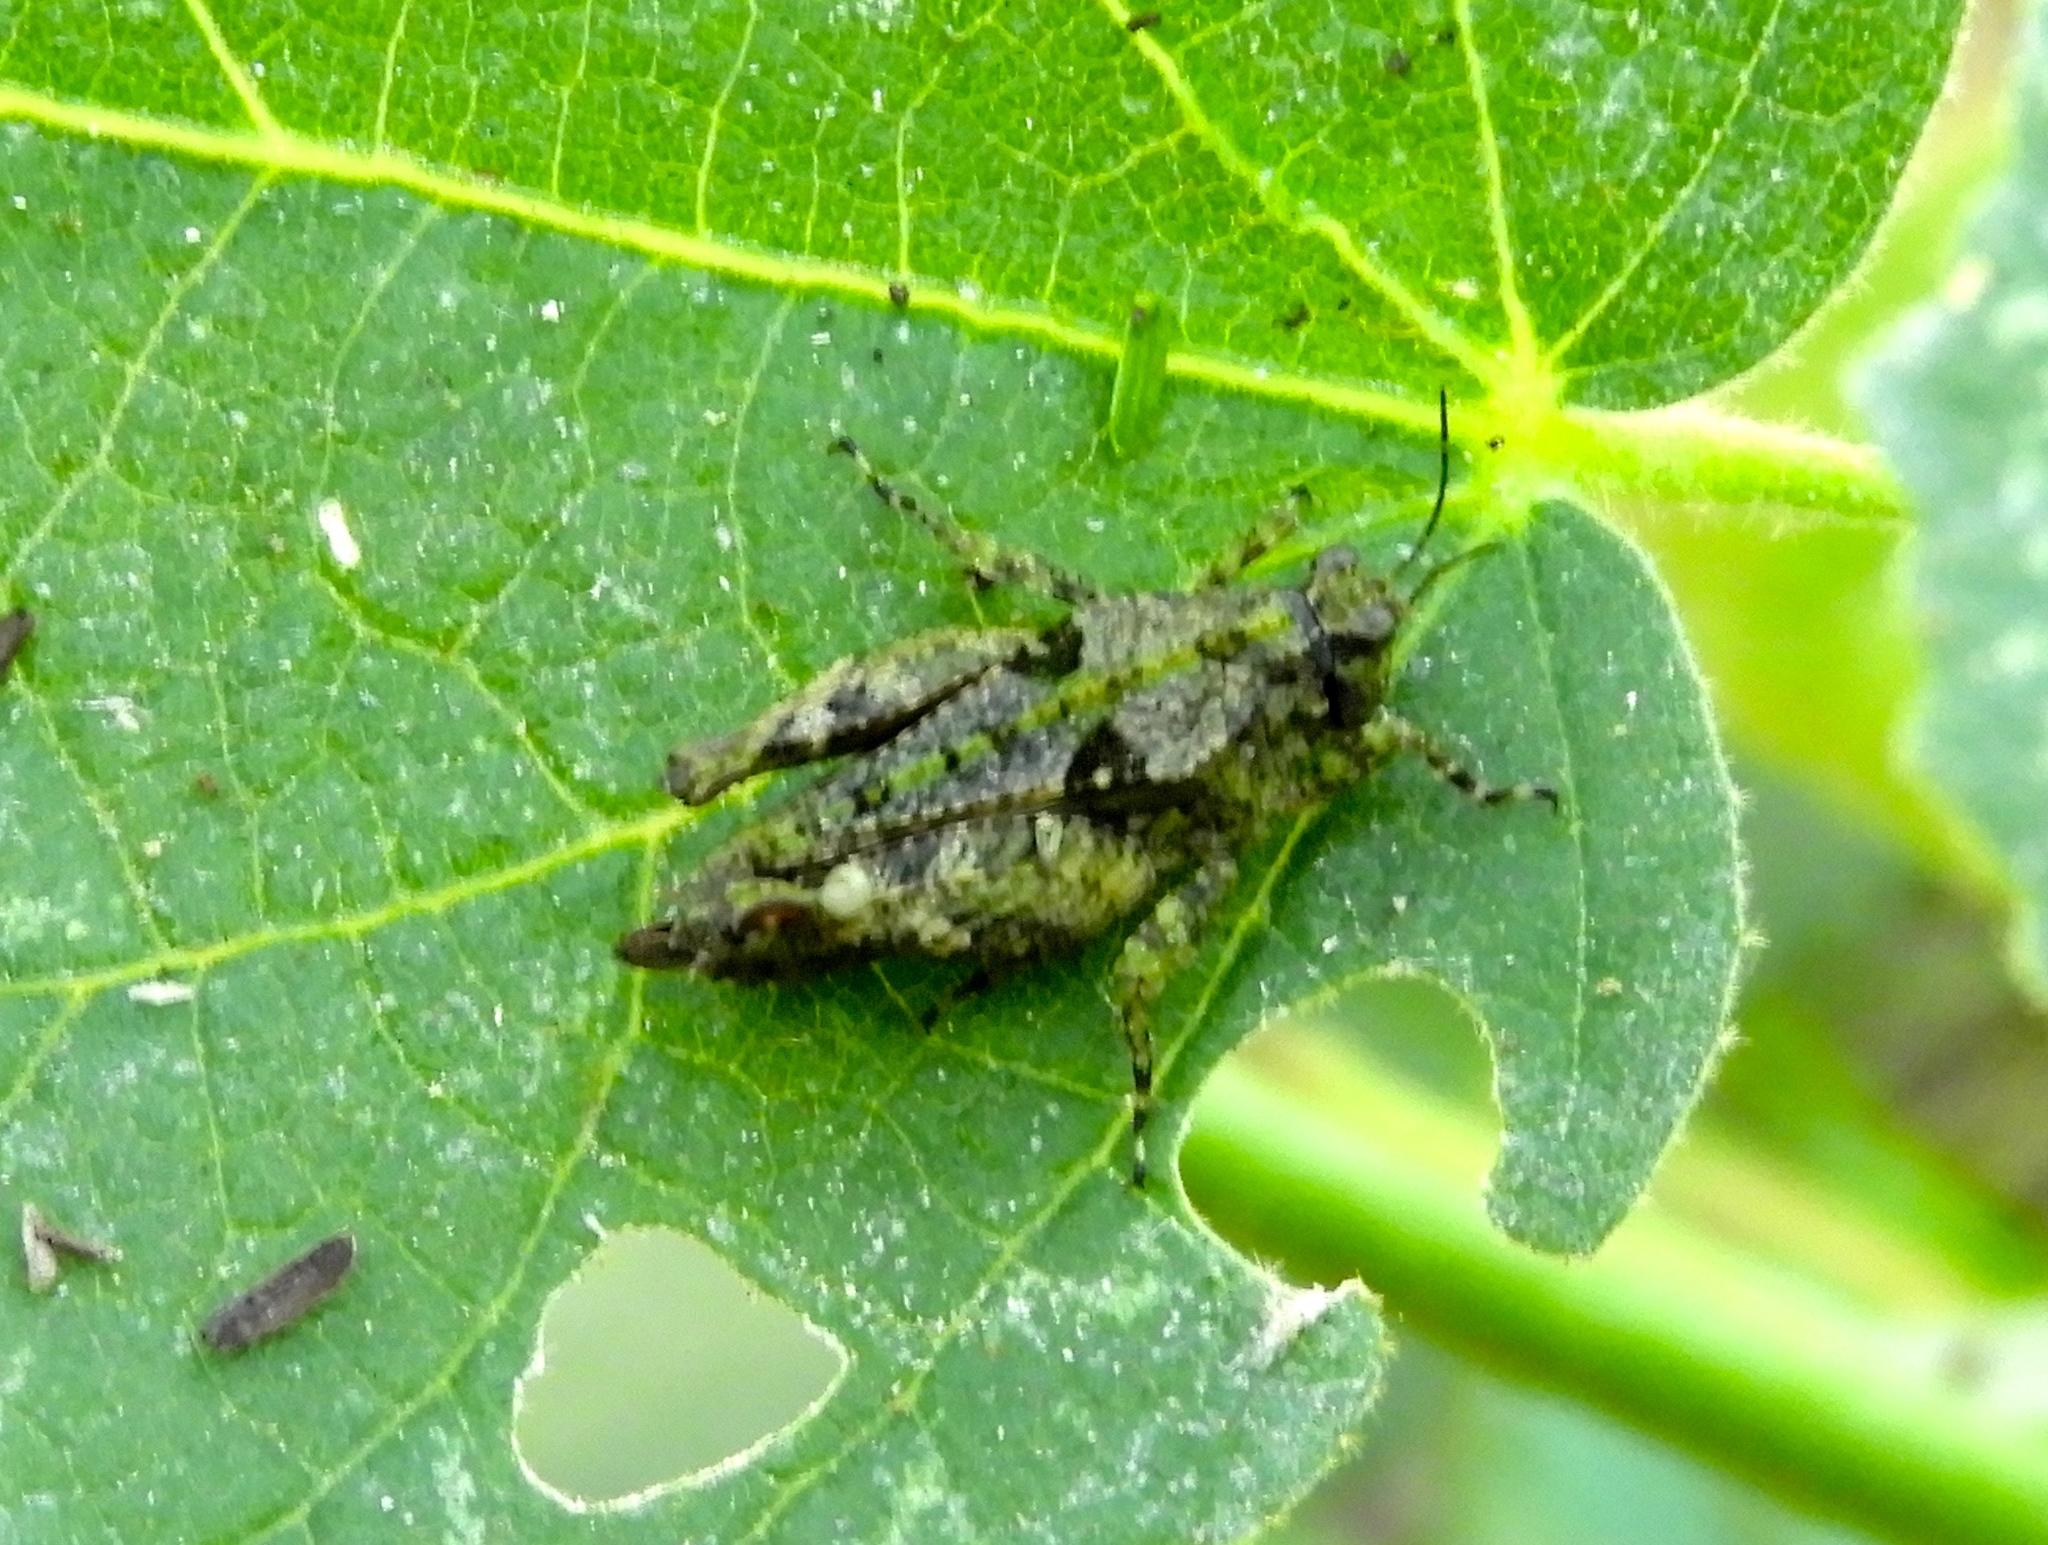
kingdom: Animalia
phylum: Arthropoda
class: Insecta
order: Orthoptera
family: Tetrigidae
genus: Paratettix
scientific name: Paratettix
